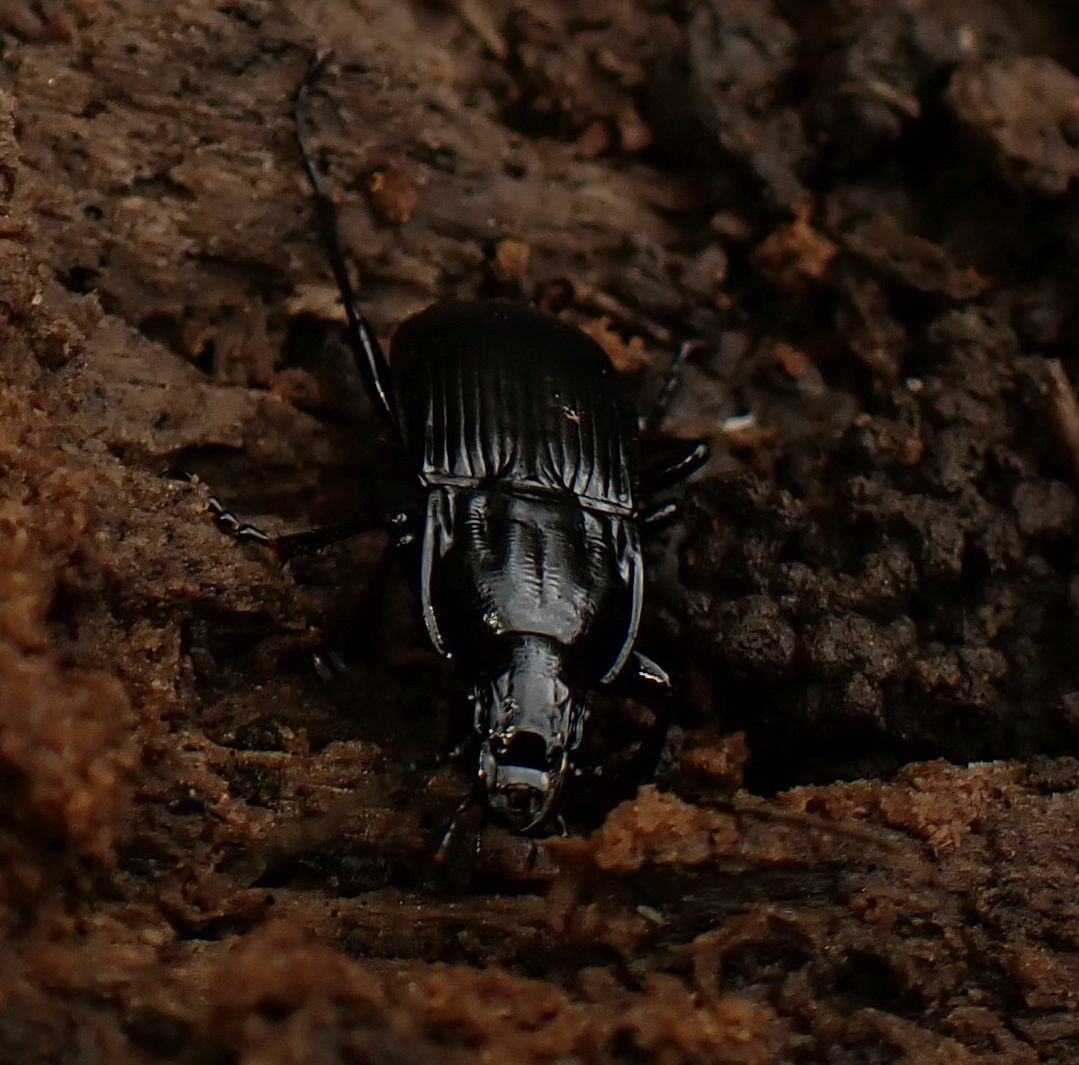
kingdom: Animalia
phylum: Arthropoda
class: Insecta
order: Coleoptera
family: Carabidae
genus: Abax
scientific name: Abax parallelepipedus
